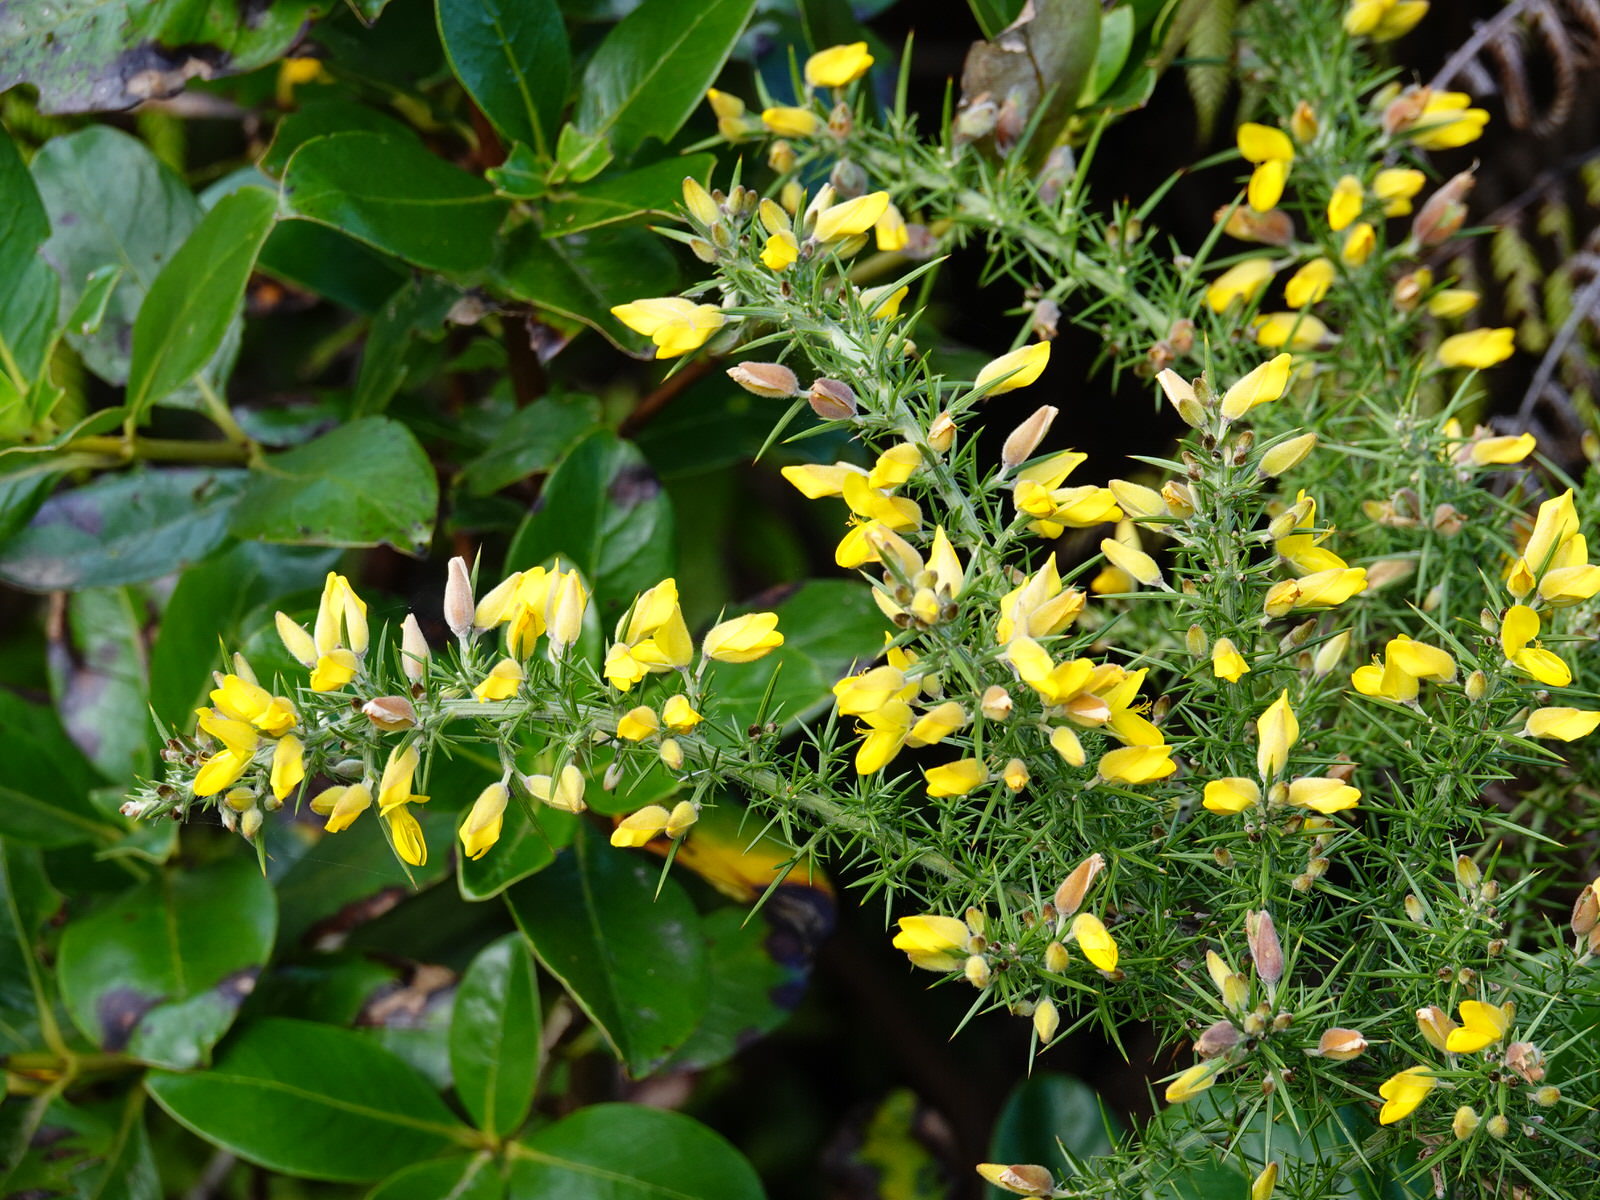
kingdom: Plantae
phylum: Tracheophyta
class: Magnoliopsida
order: Fabales
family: Fabaceae
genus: Ulex
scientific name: Ulex europaeus
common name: Common gorse
